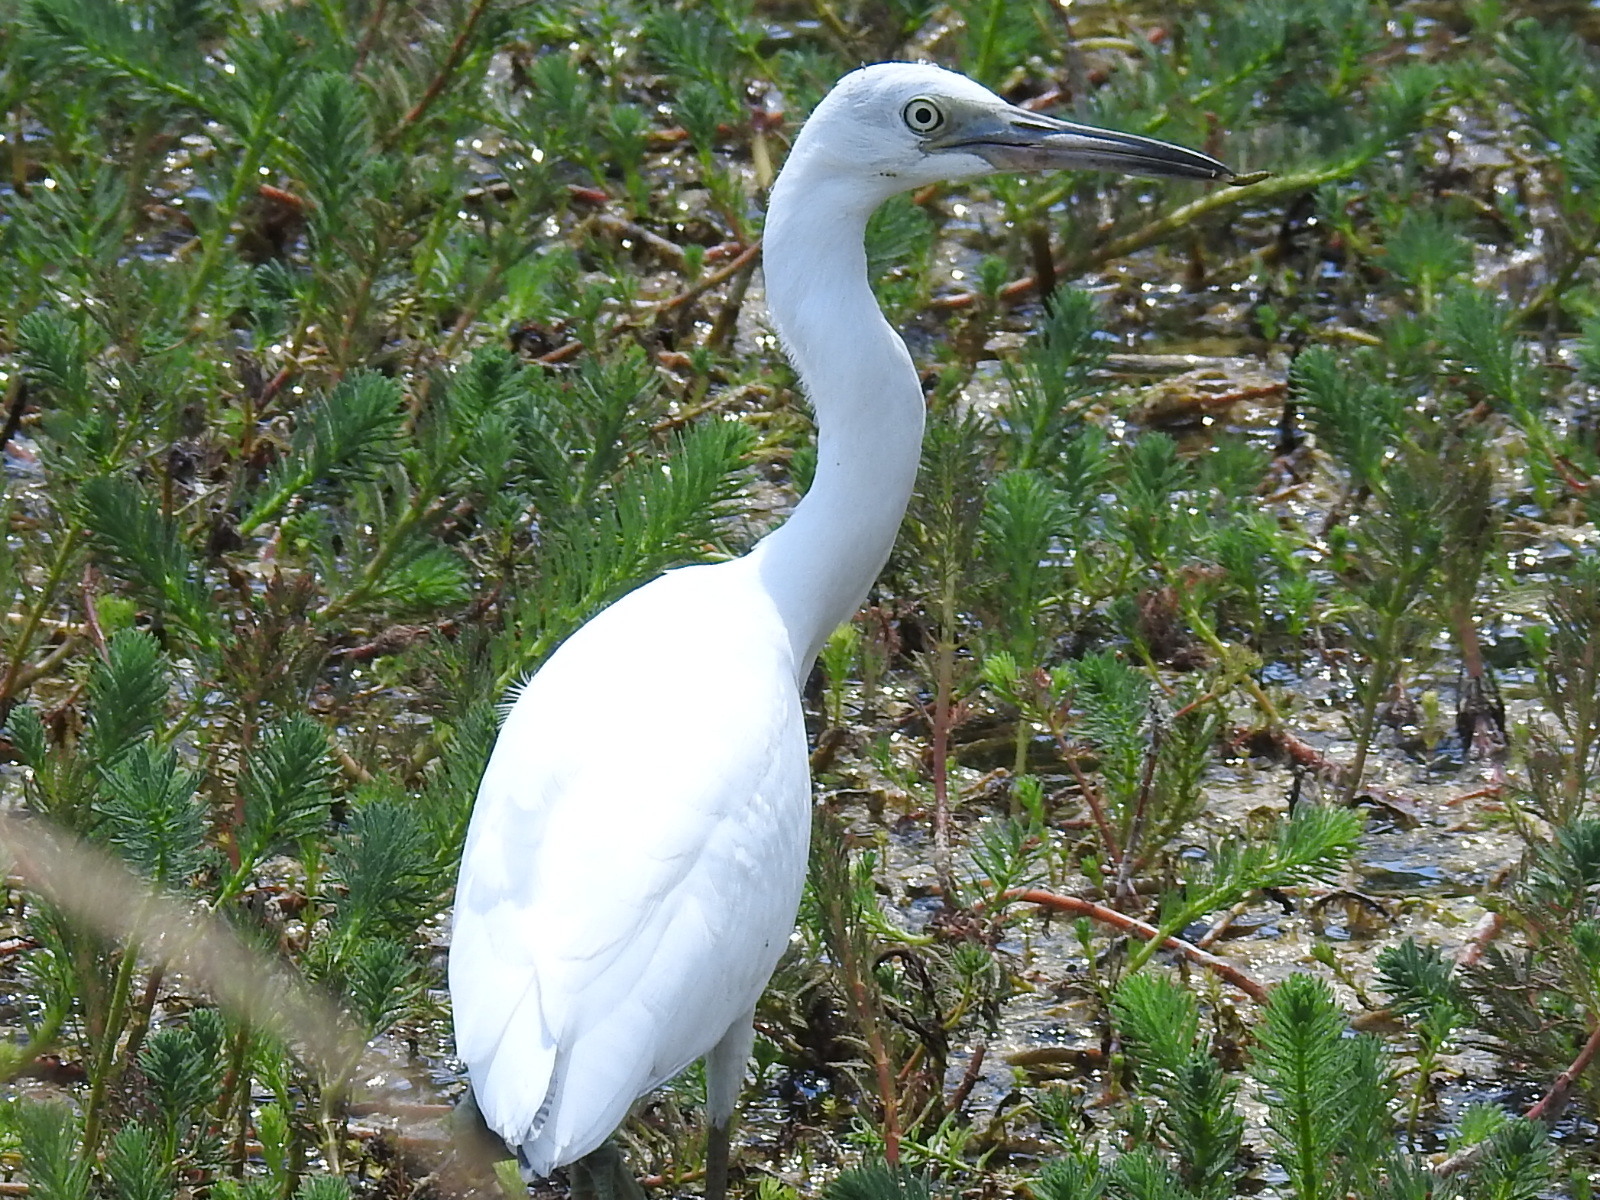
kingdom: Animalia
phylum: Chordata
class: Aves
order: Pelecaniformes
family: Ardeidae
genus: Egretta
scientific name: Egretta caerulea
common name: Little blue heron
